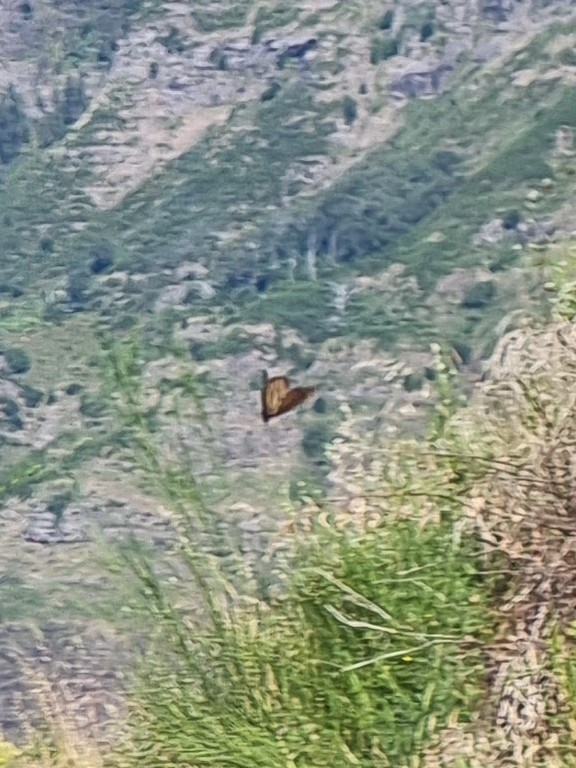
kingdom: Animalia
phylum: Arthropoda
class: Insecta
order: Lepidoptera
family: Nymphalidae
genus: Danaus
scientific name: Danaus plexippus
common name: Monarch
